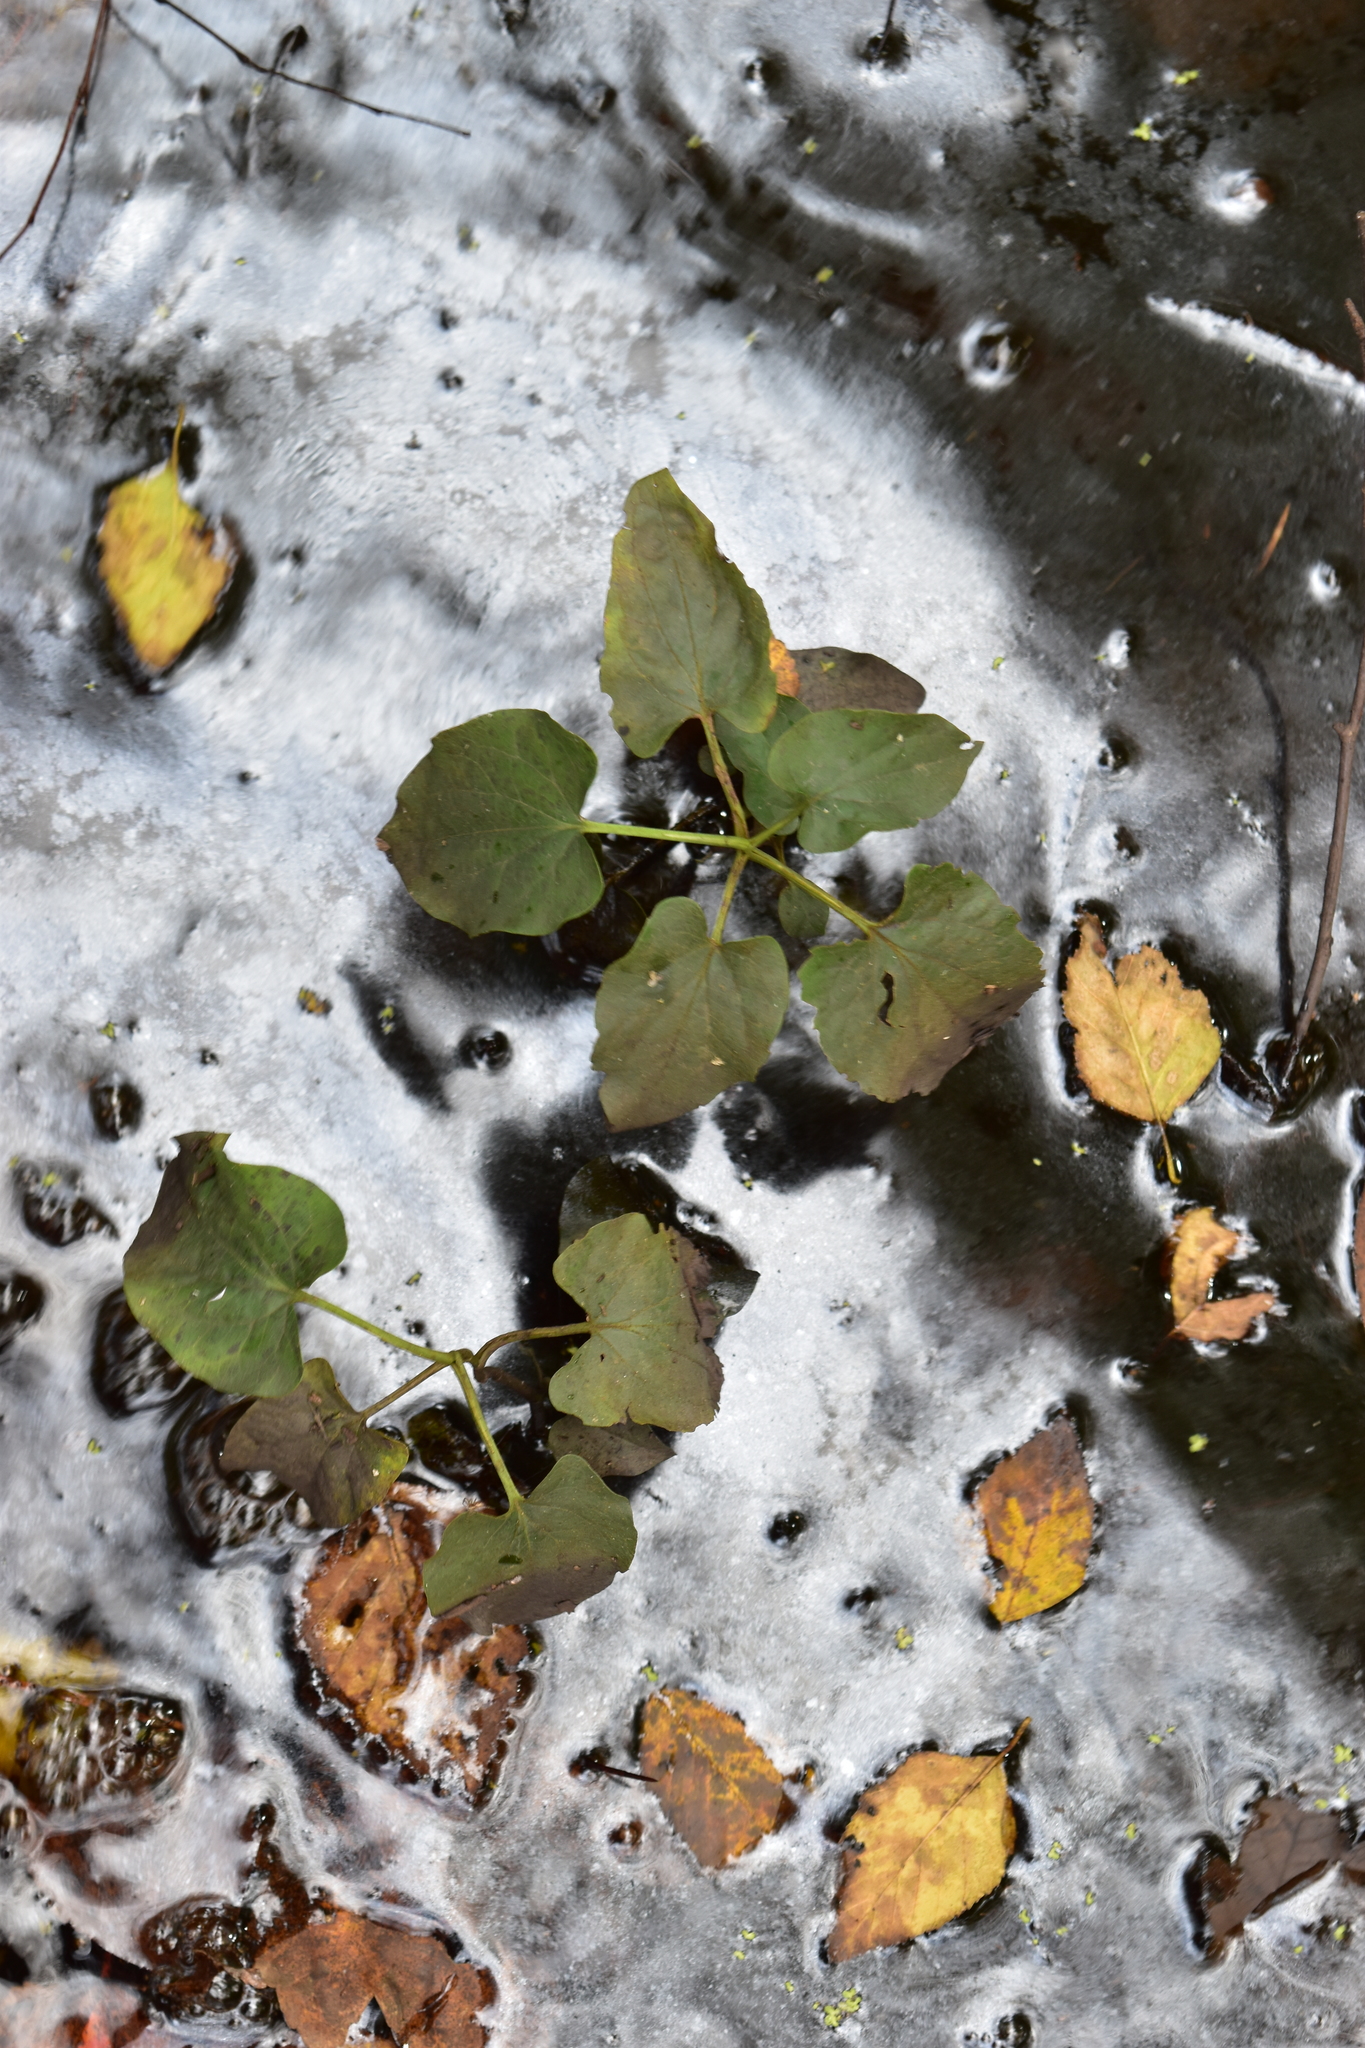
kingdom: Plantae
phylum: Tracheophyta
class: Magnoliopsida
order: Piperales
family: Saururaceae
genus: Saururus
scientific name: Saururus cernuus
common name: Lizard's-tail
